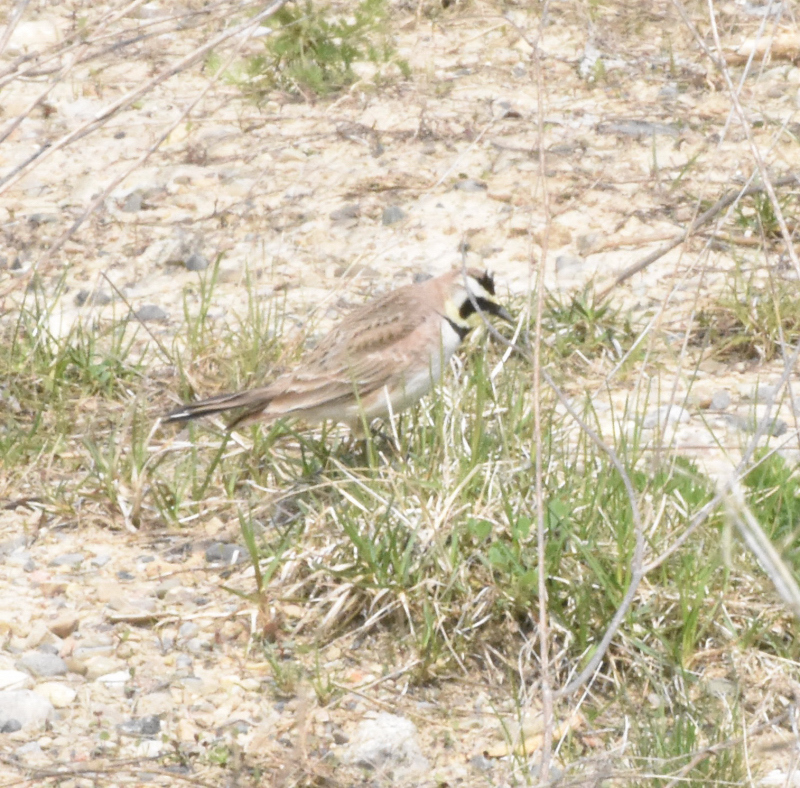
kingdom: Animalia
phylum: Chordata
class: Aves
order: Passeriformes
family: Alaudidae
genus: Eremophila
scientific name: Eremophila alpestris
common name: Horned lark
